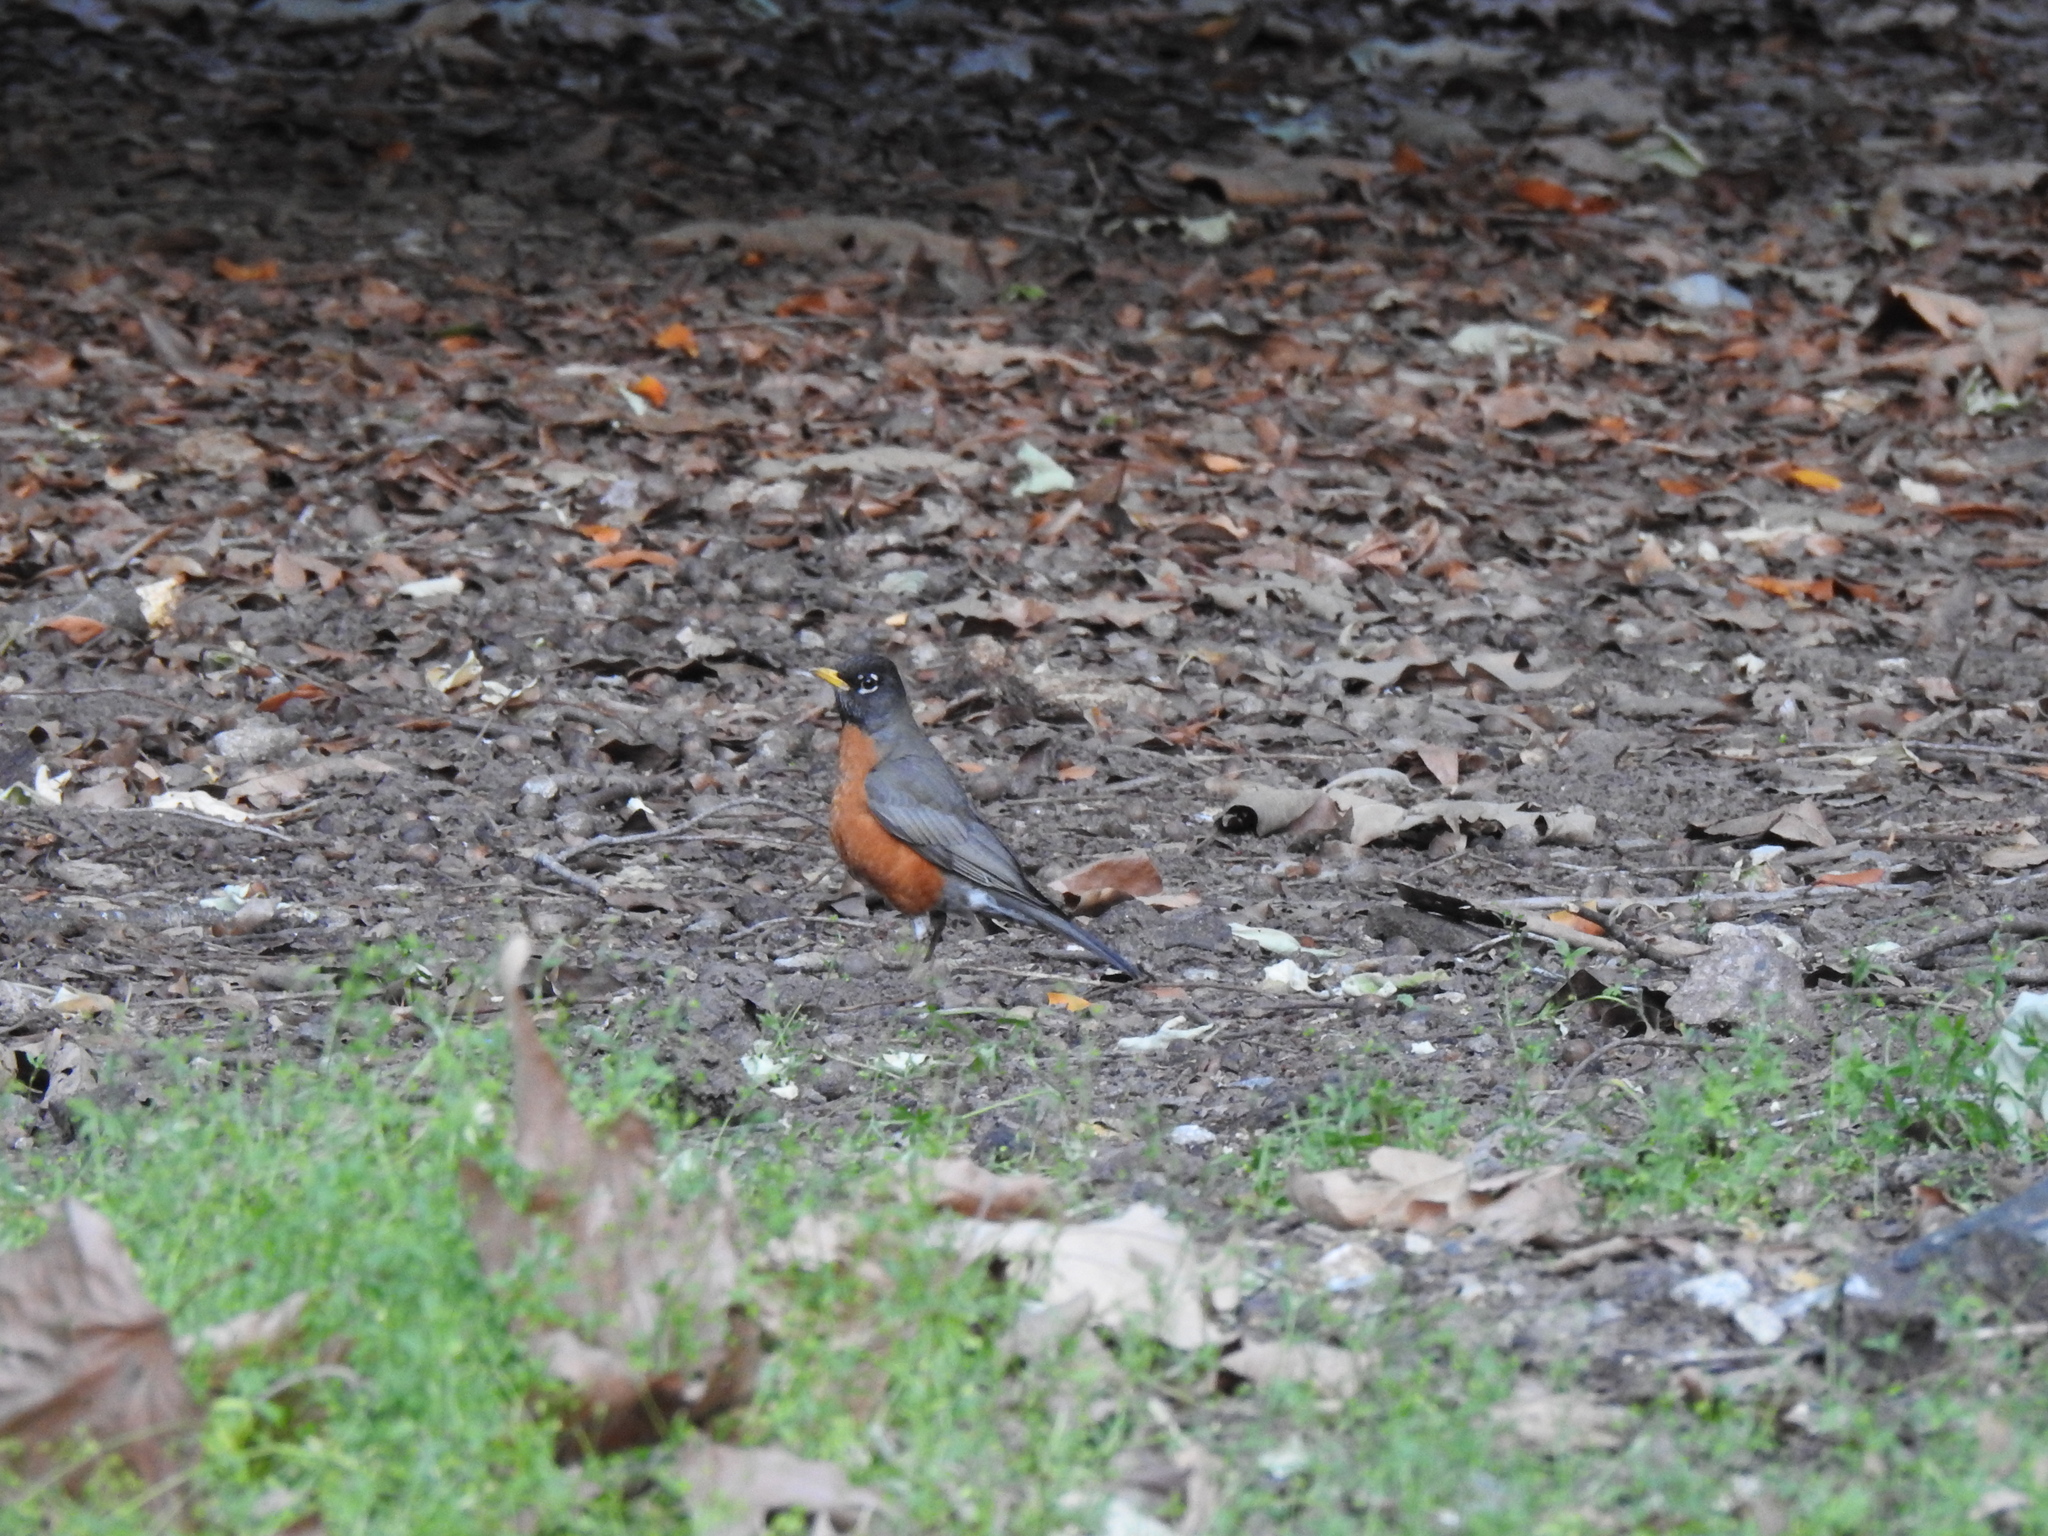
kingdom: Animalia
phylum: Chordata
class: Aves
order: Passeriformes
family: Turdidae
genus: Turdus
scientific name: Turdus migratorius
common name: American robin
